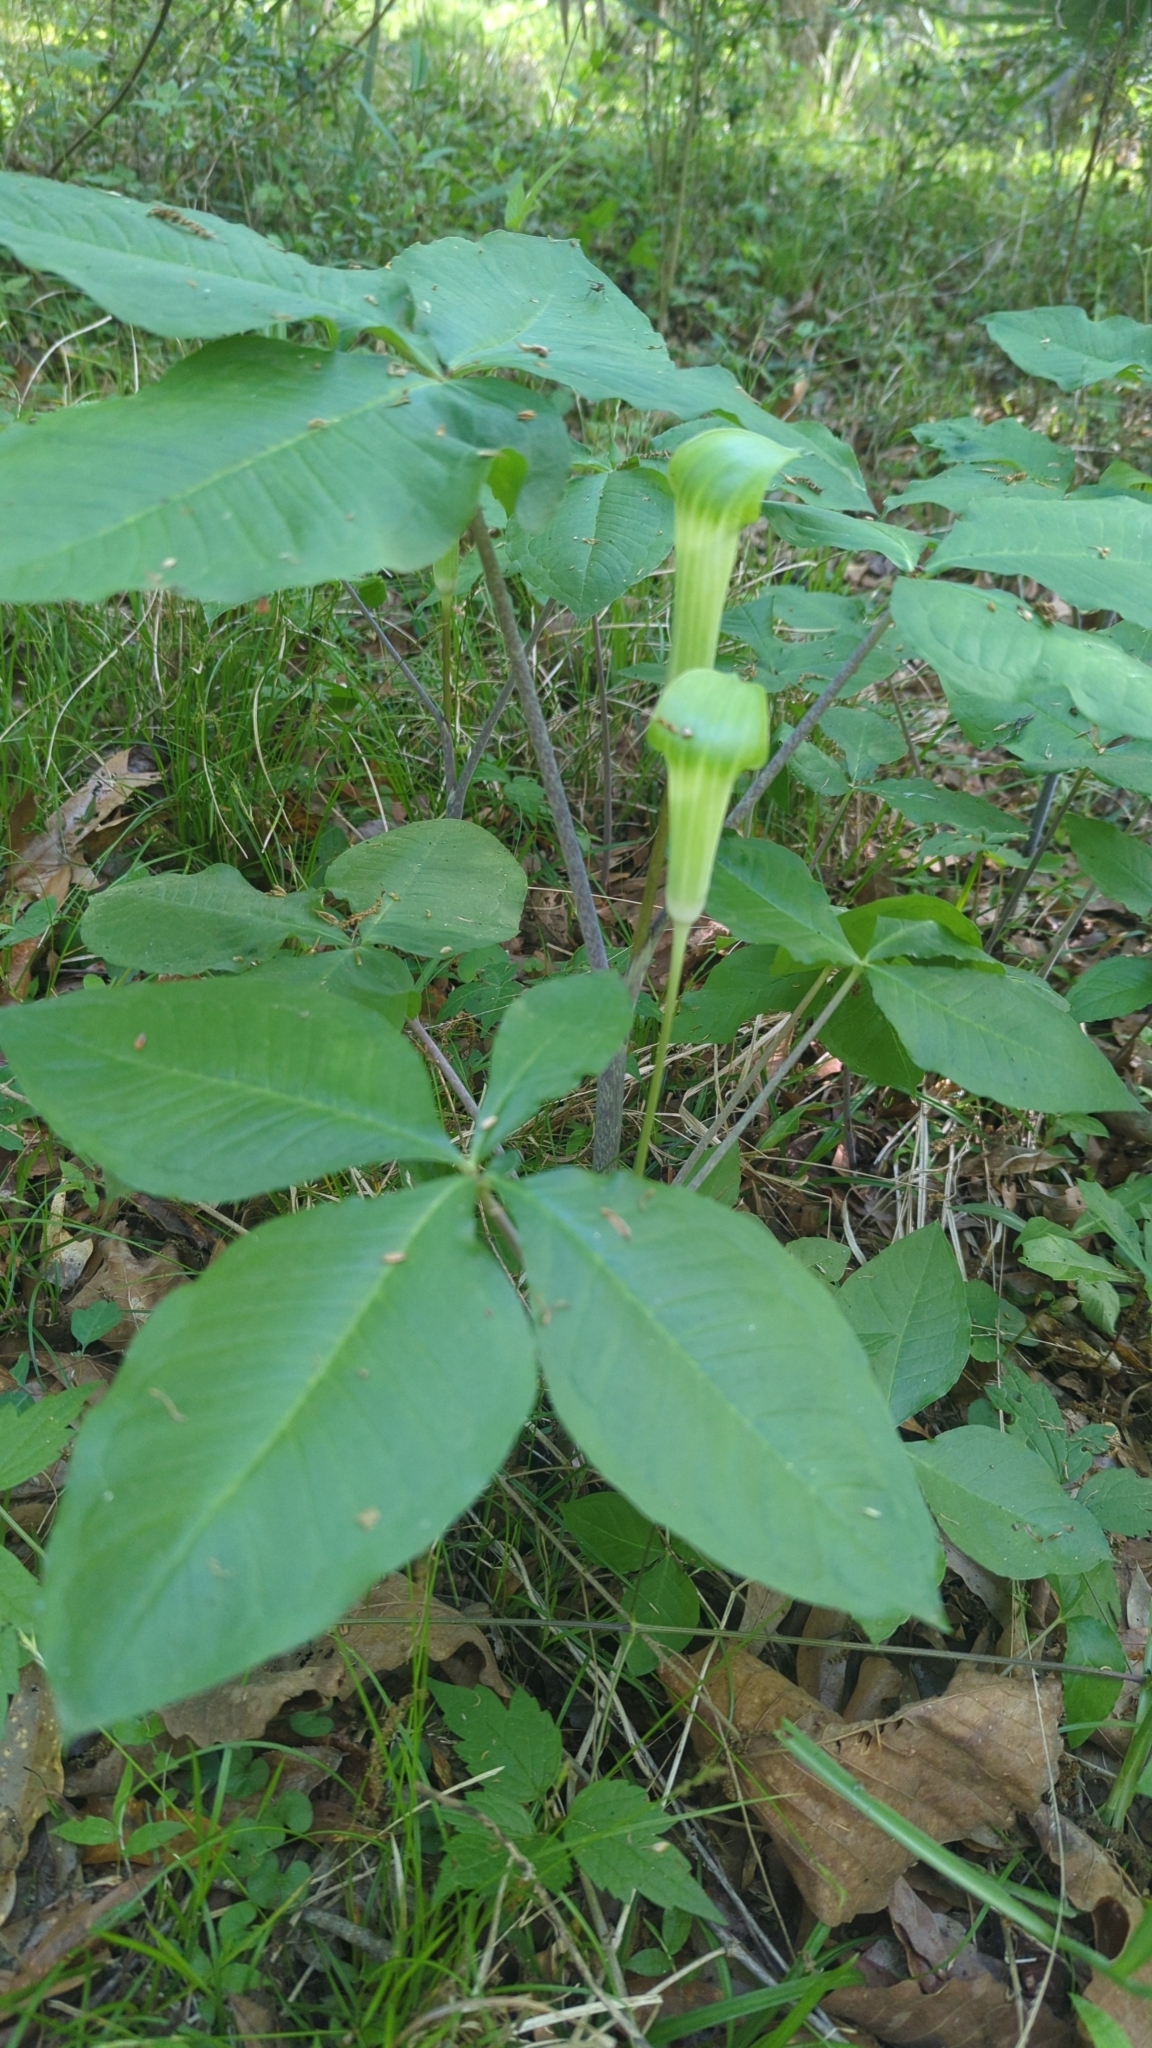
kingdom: Plantae
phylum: Tracheophyta
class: Liliopsida
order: Alismatales
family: Araceae
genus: Arisaema
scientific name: Arisaema quinatum
